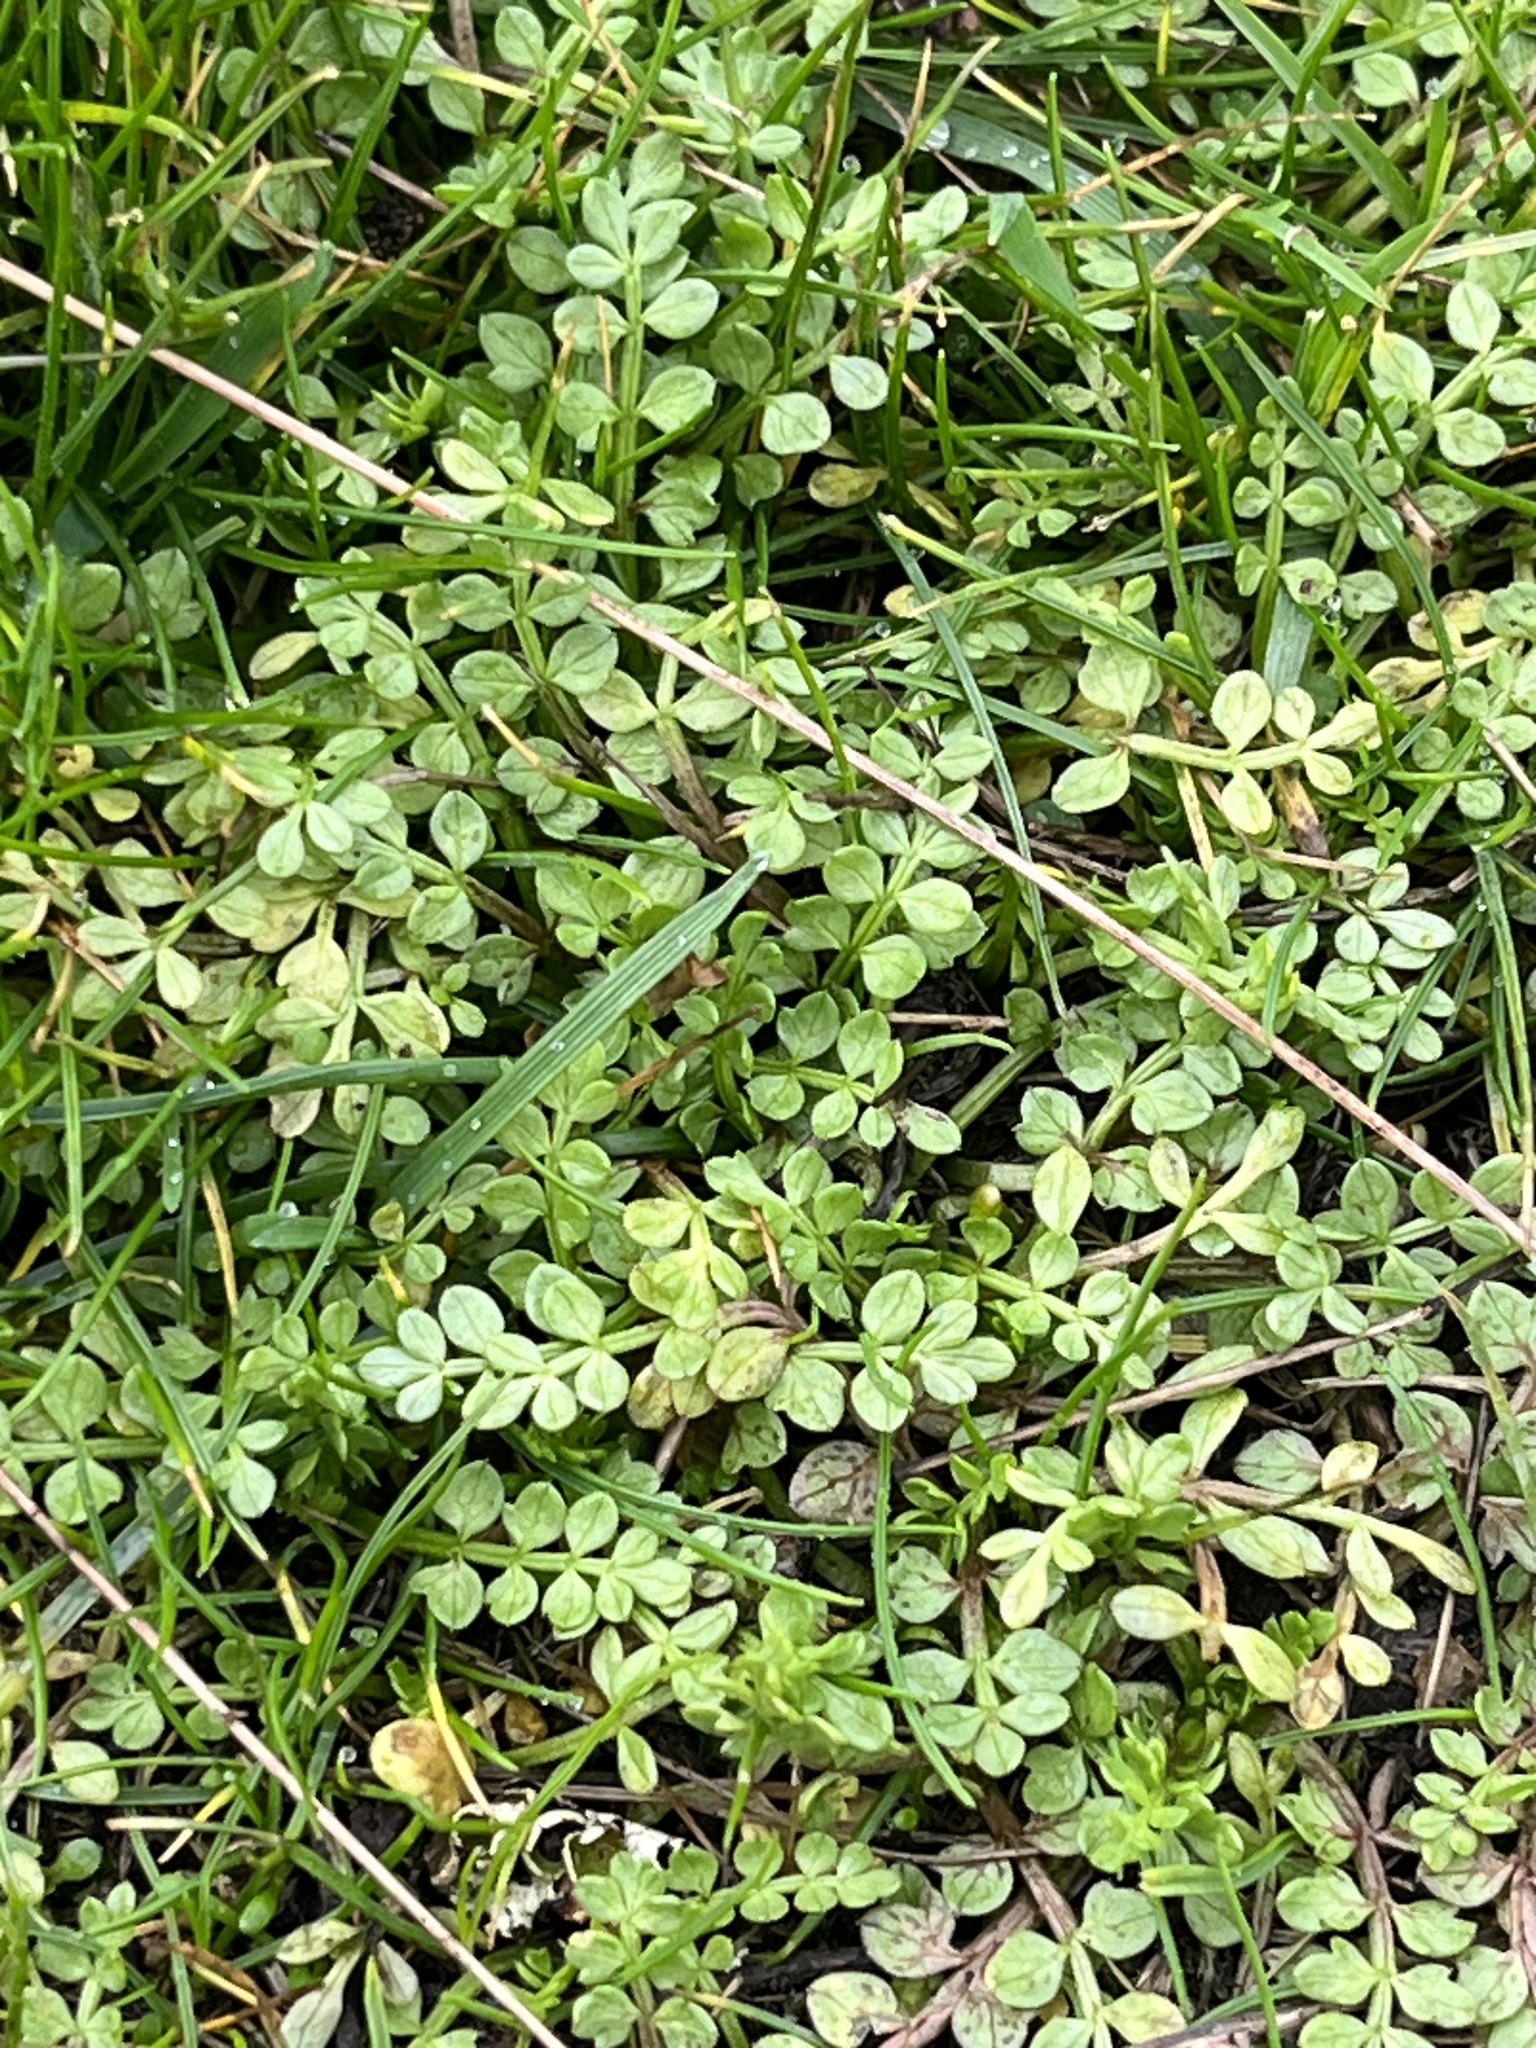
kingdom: Plantae
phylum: Tracheophyta
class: Magnoliopsida
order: Brassicales
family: Limnanthaceae
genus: Limnanthes
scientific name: Limnanthes macounii
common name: Macoun's meadowfoam
